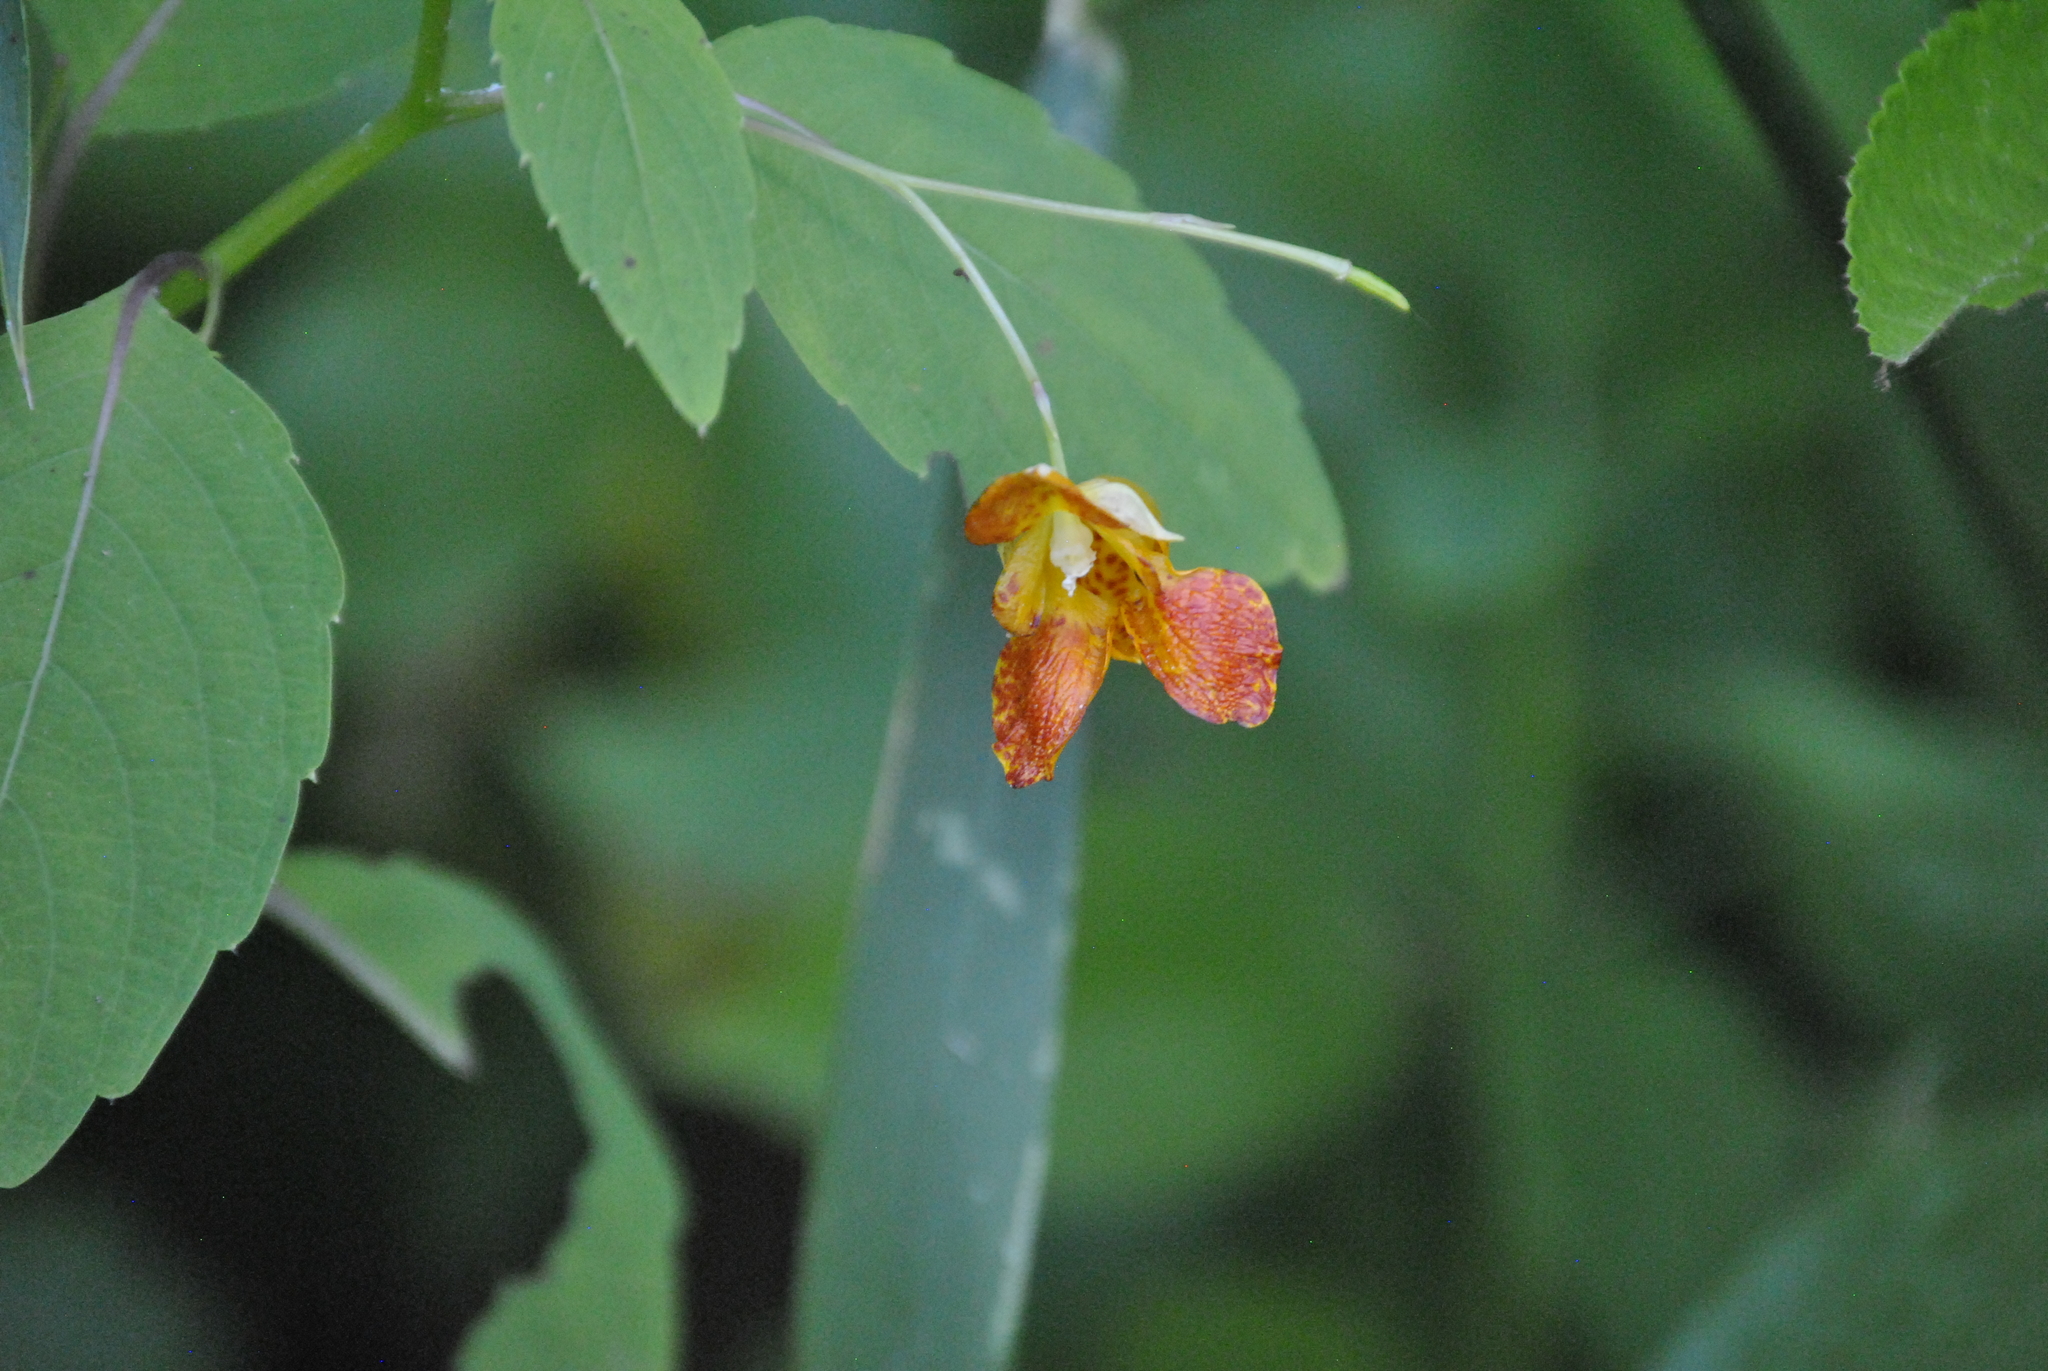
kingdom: Plantae
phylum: Tracheophyta
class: Magnoliopsida
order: Ericales
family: Balsaminaceae
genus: Impatiens
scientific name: Impatiens capensis
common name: Orange balsam
